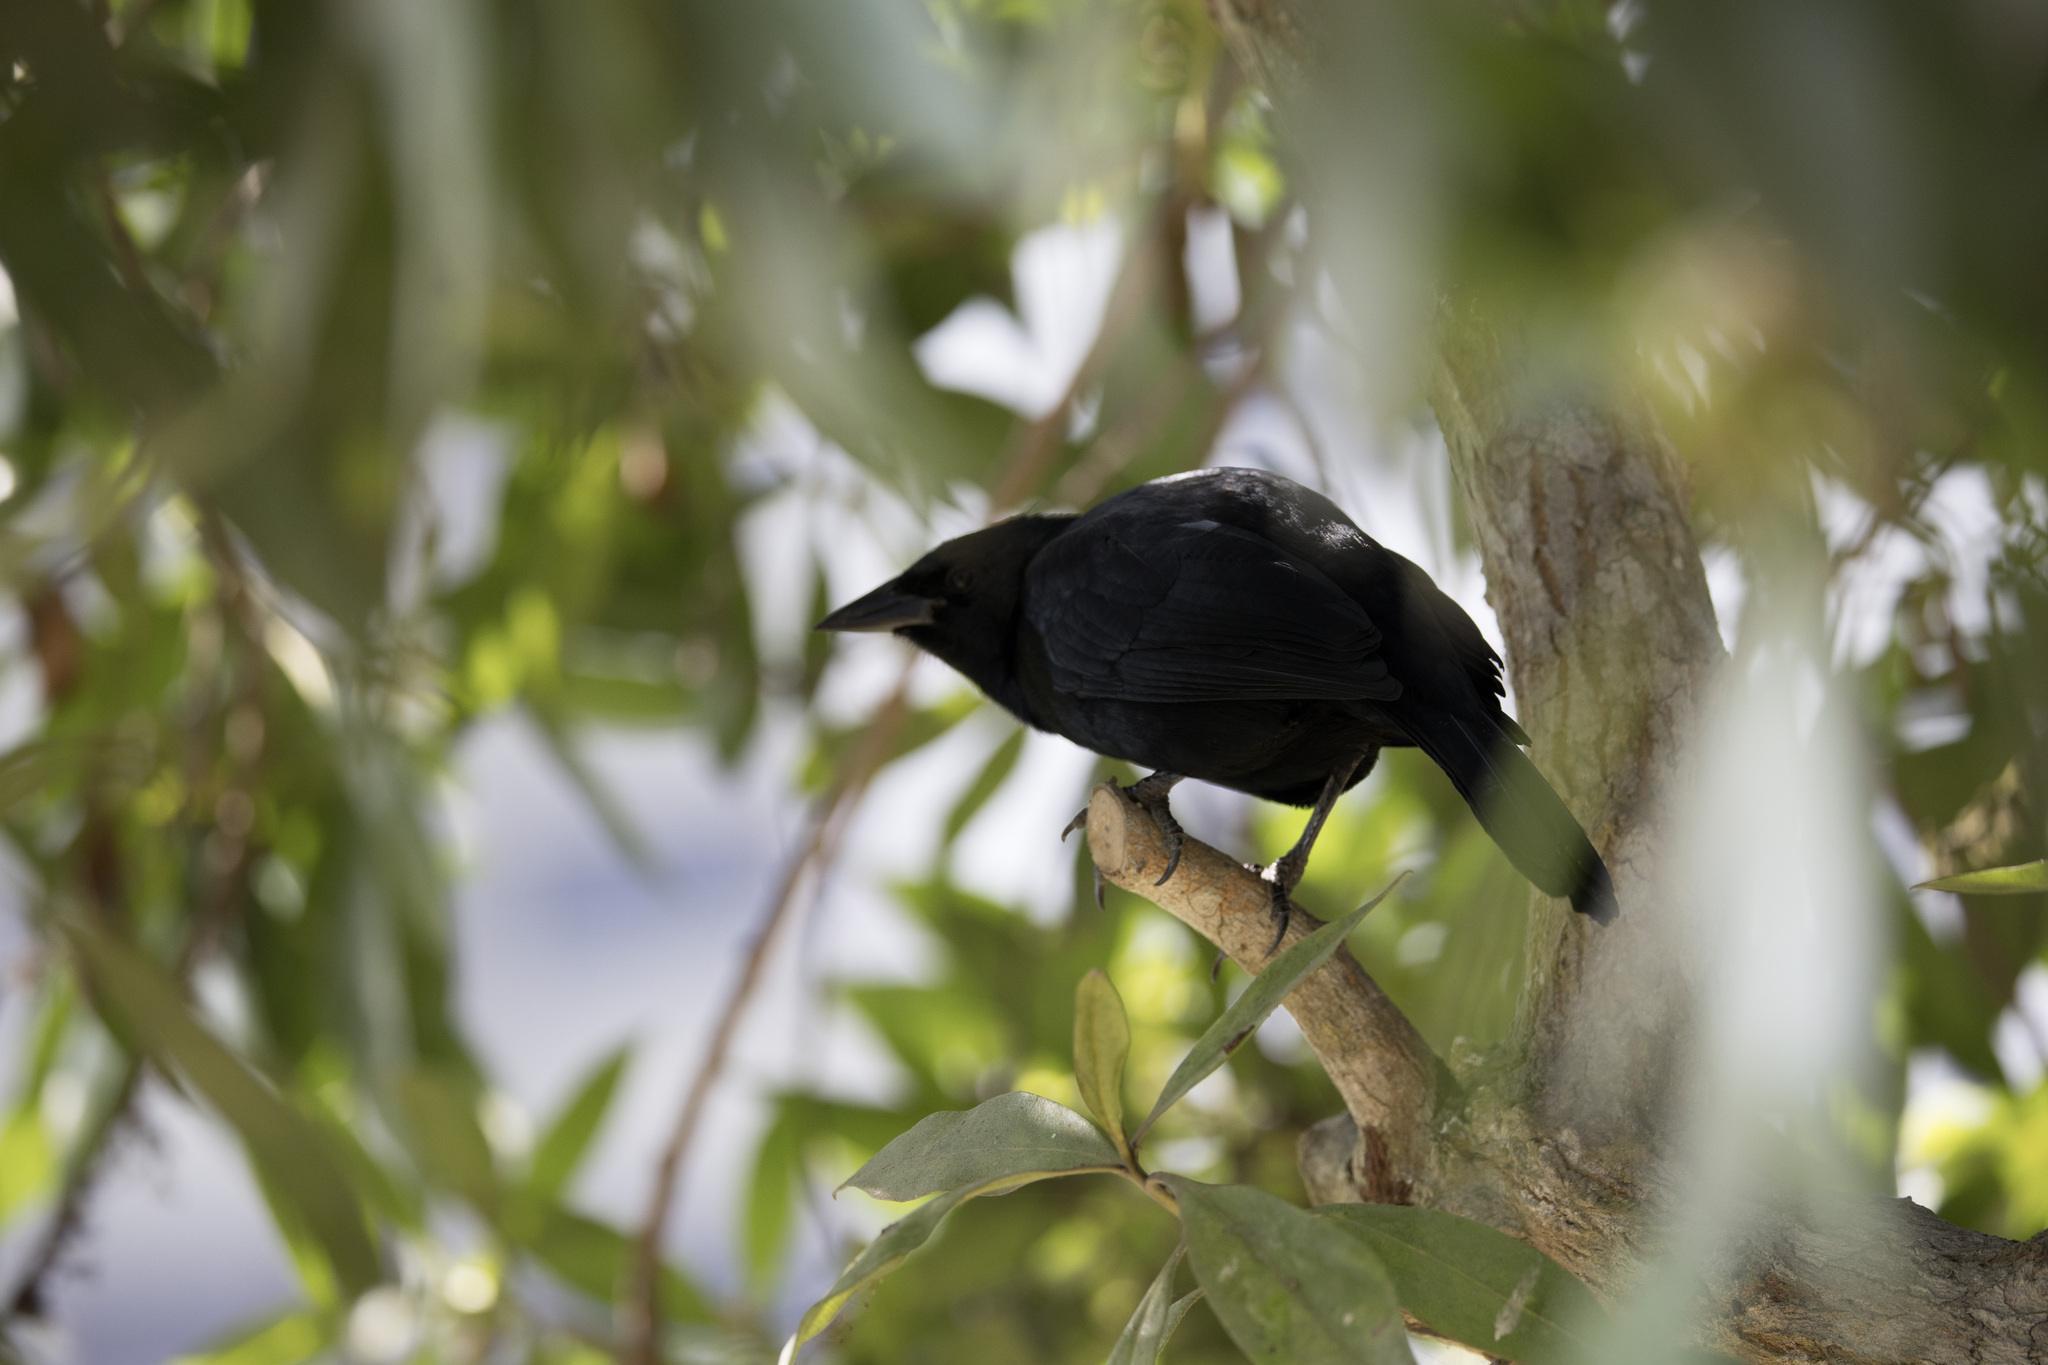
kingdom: Animalia
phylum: Chordata
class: Aves
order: Passeriformes
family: Icteridae
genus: Dives
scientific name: Dives warczewiczi
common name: Scrub blackbird
